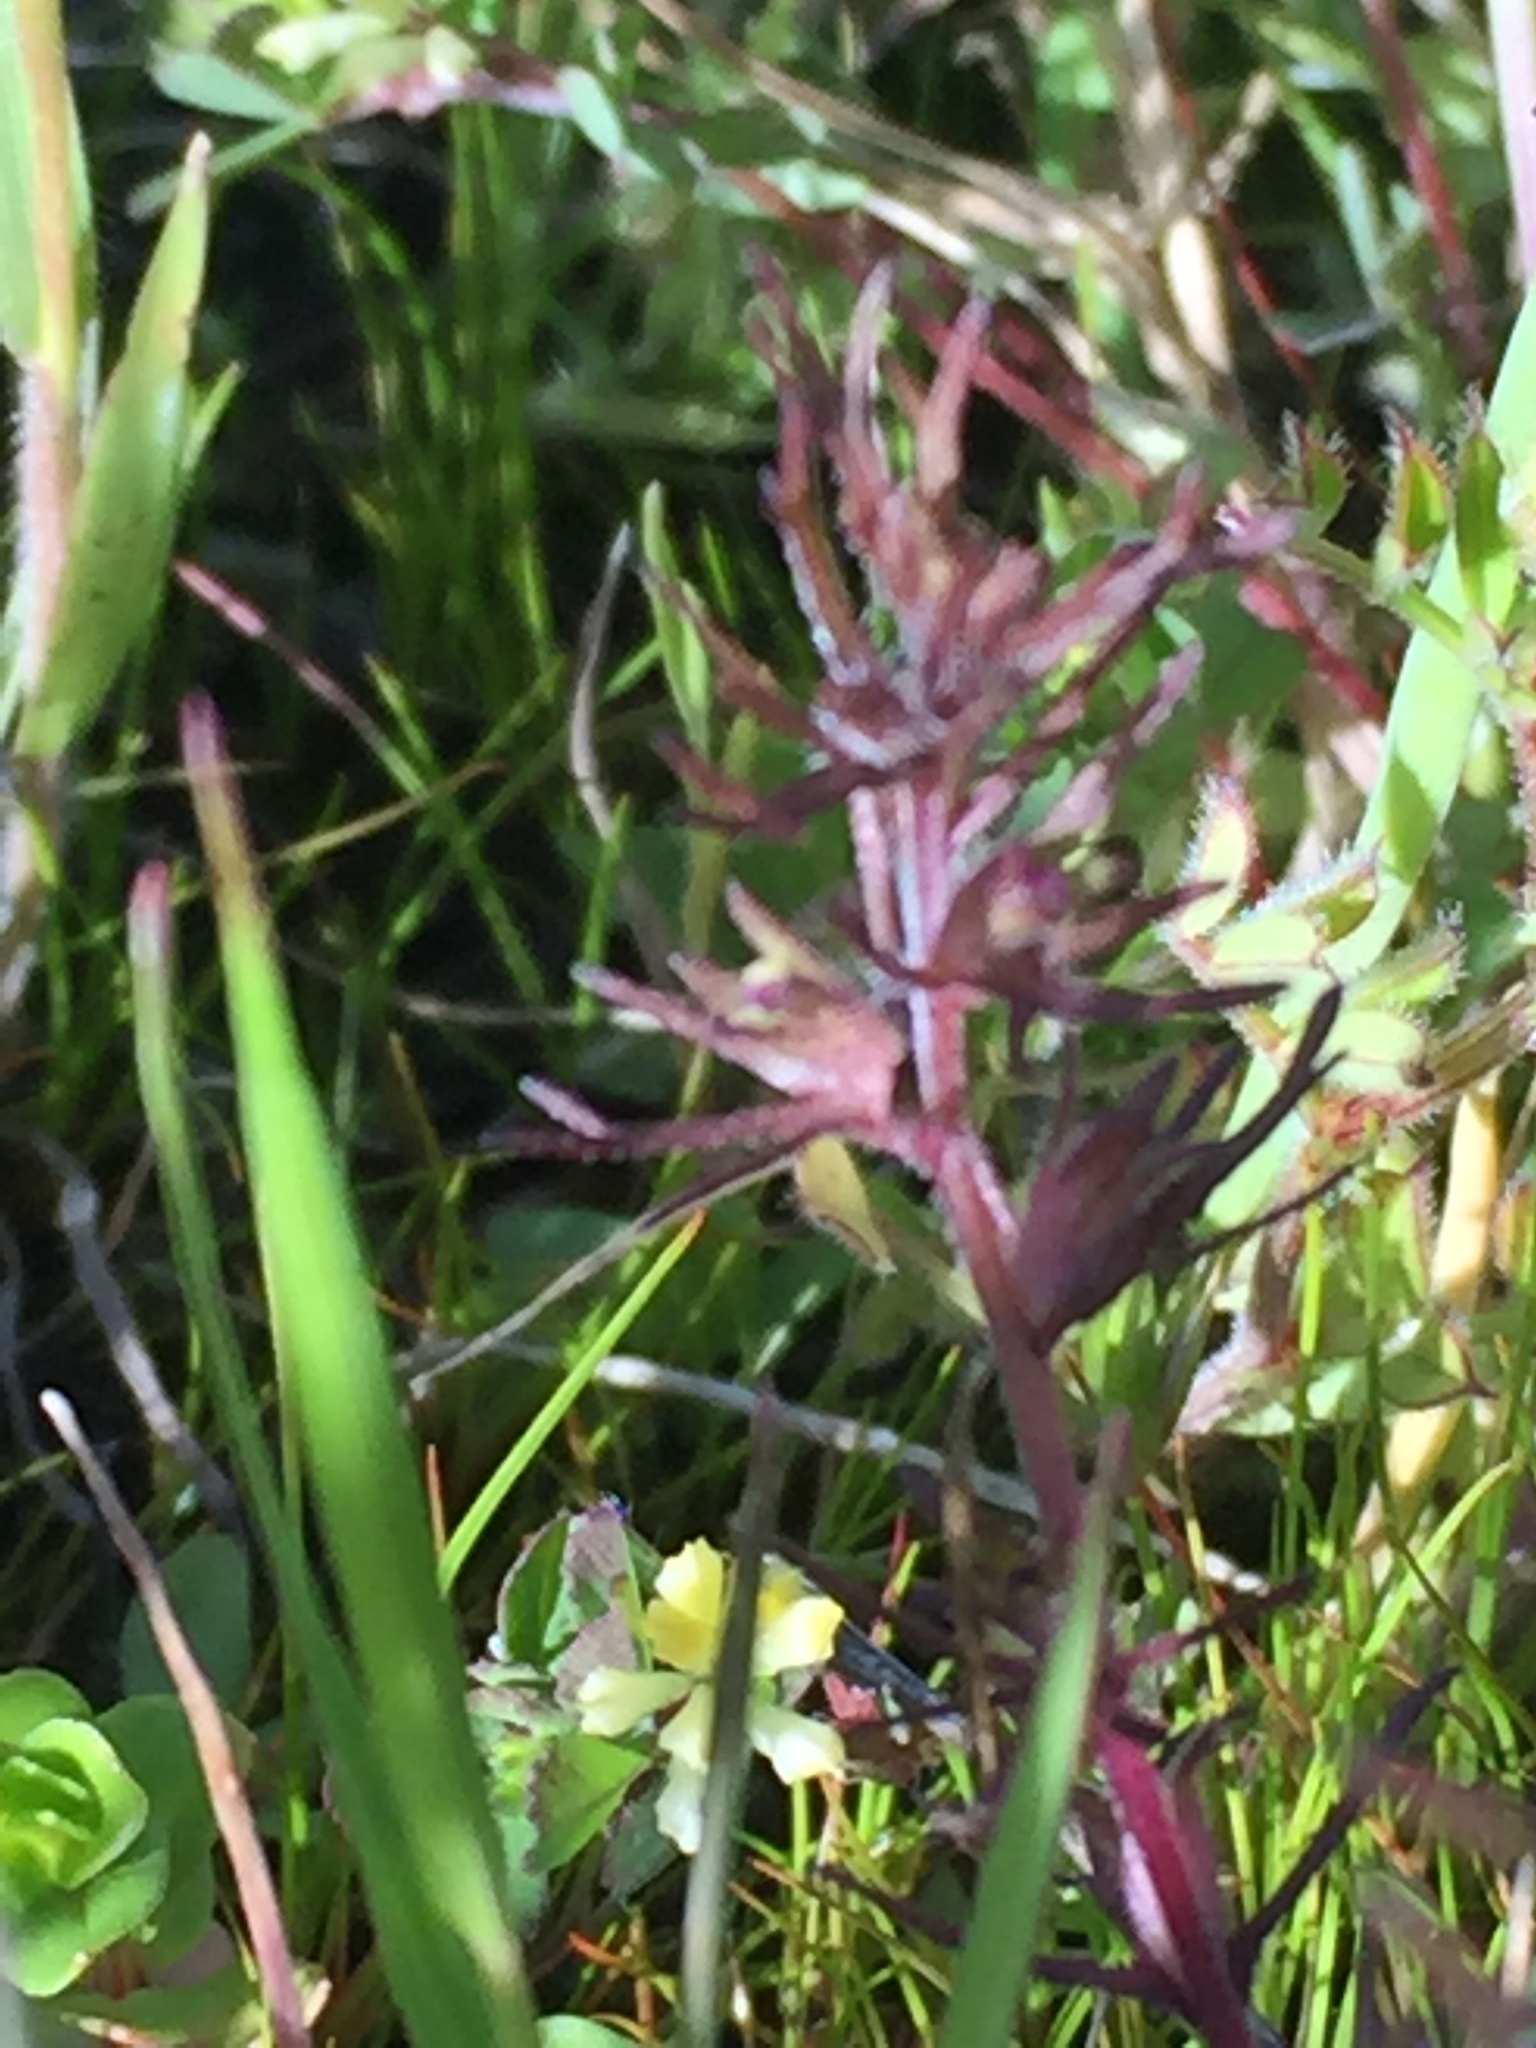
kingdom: Plantae
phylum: Tracheophyta
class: Magnoliopsida
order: Lamiales
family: Orobanchaceae
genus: Triphysaria
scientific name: Triphysaria pusilla
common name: Dwarf false owl-clover
